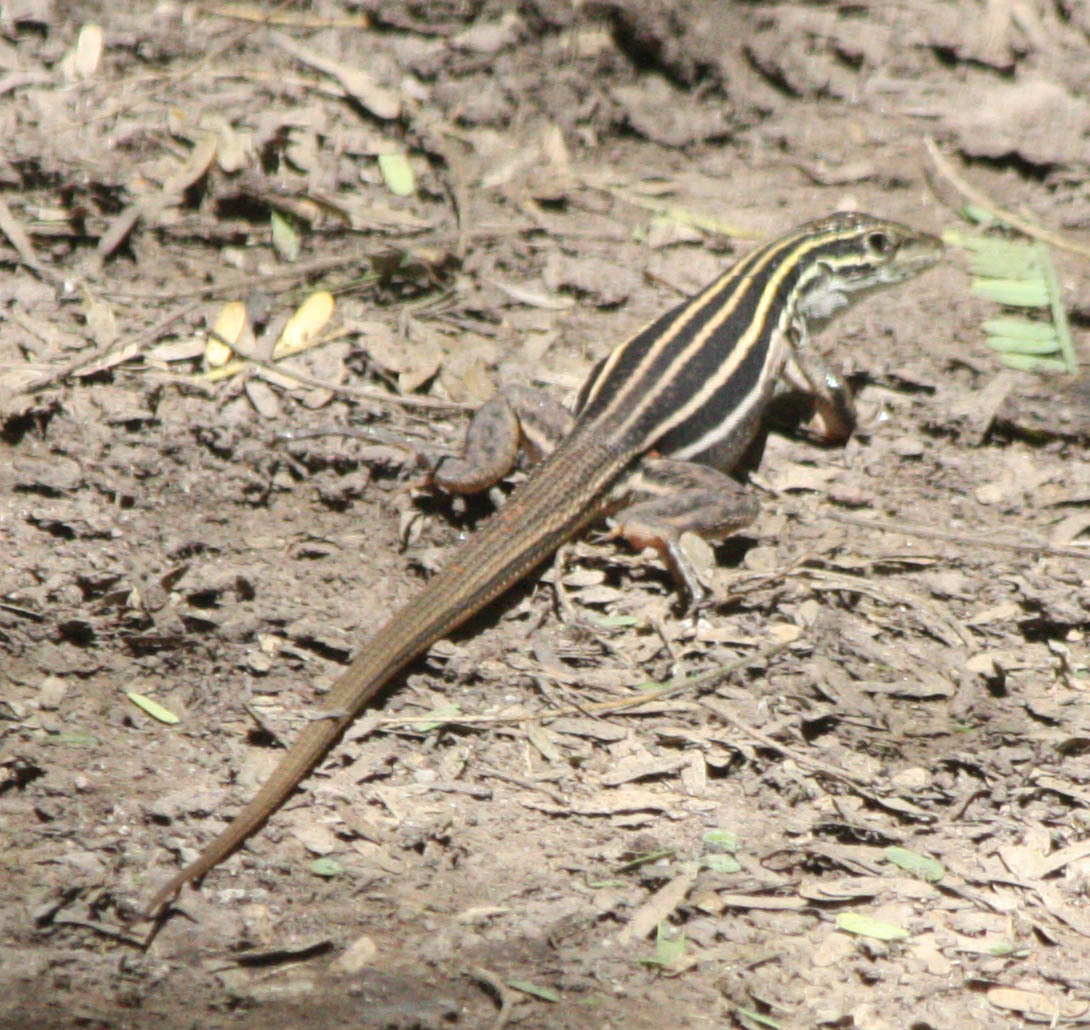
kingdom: Animalia
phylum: Chordata
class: Squamata
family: Teiidae
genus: Aspidoscelis
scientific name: Aspidoscelis uniparens
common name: Desert grassland whiptail
